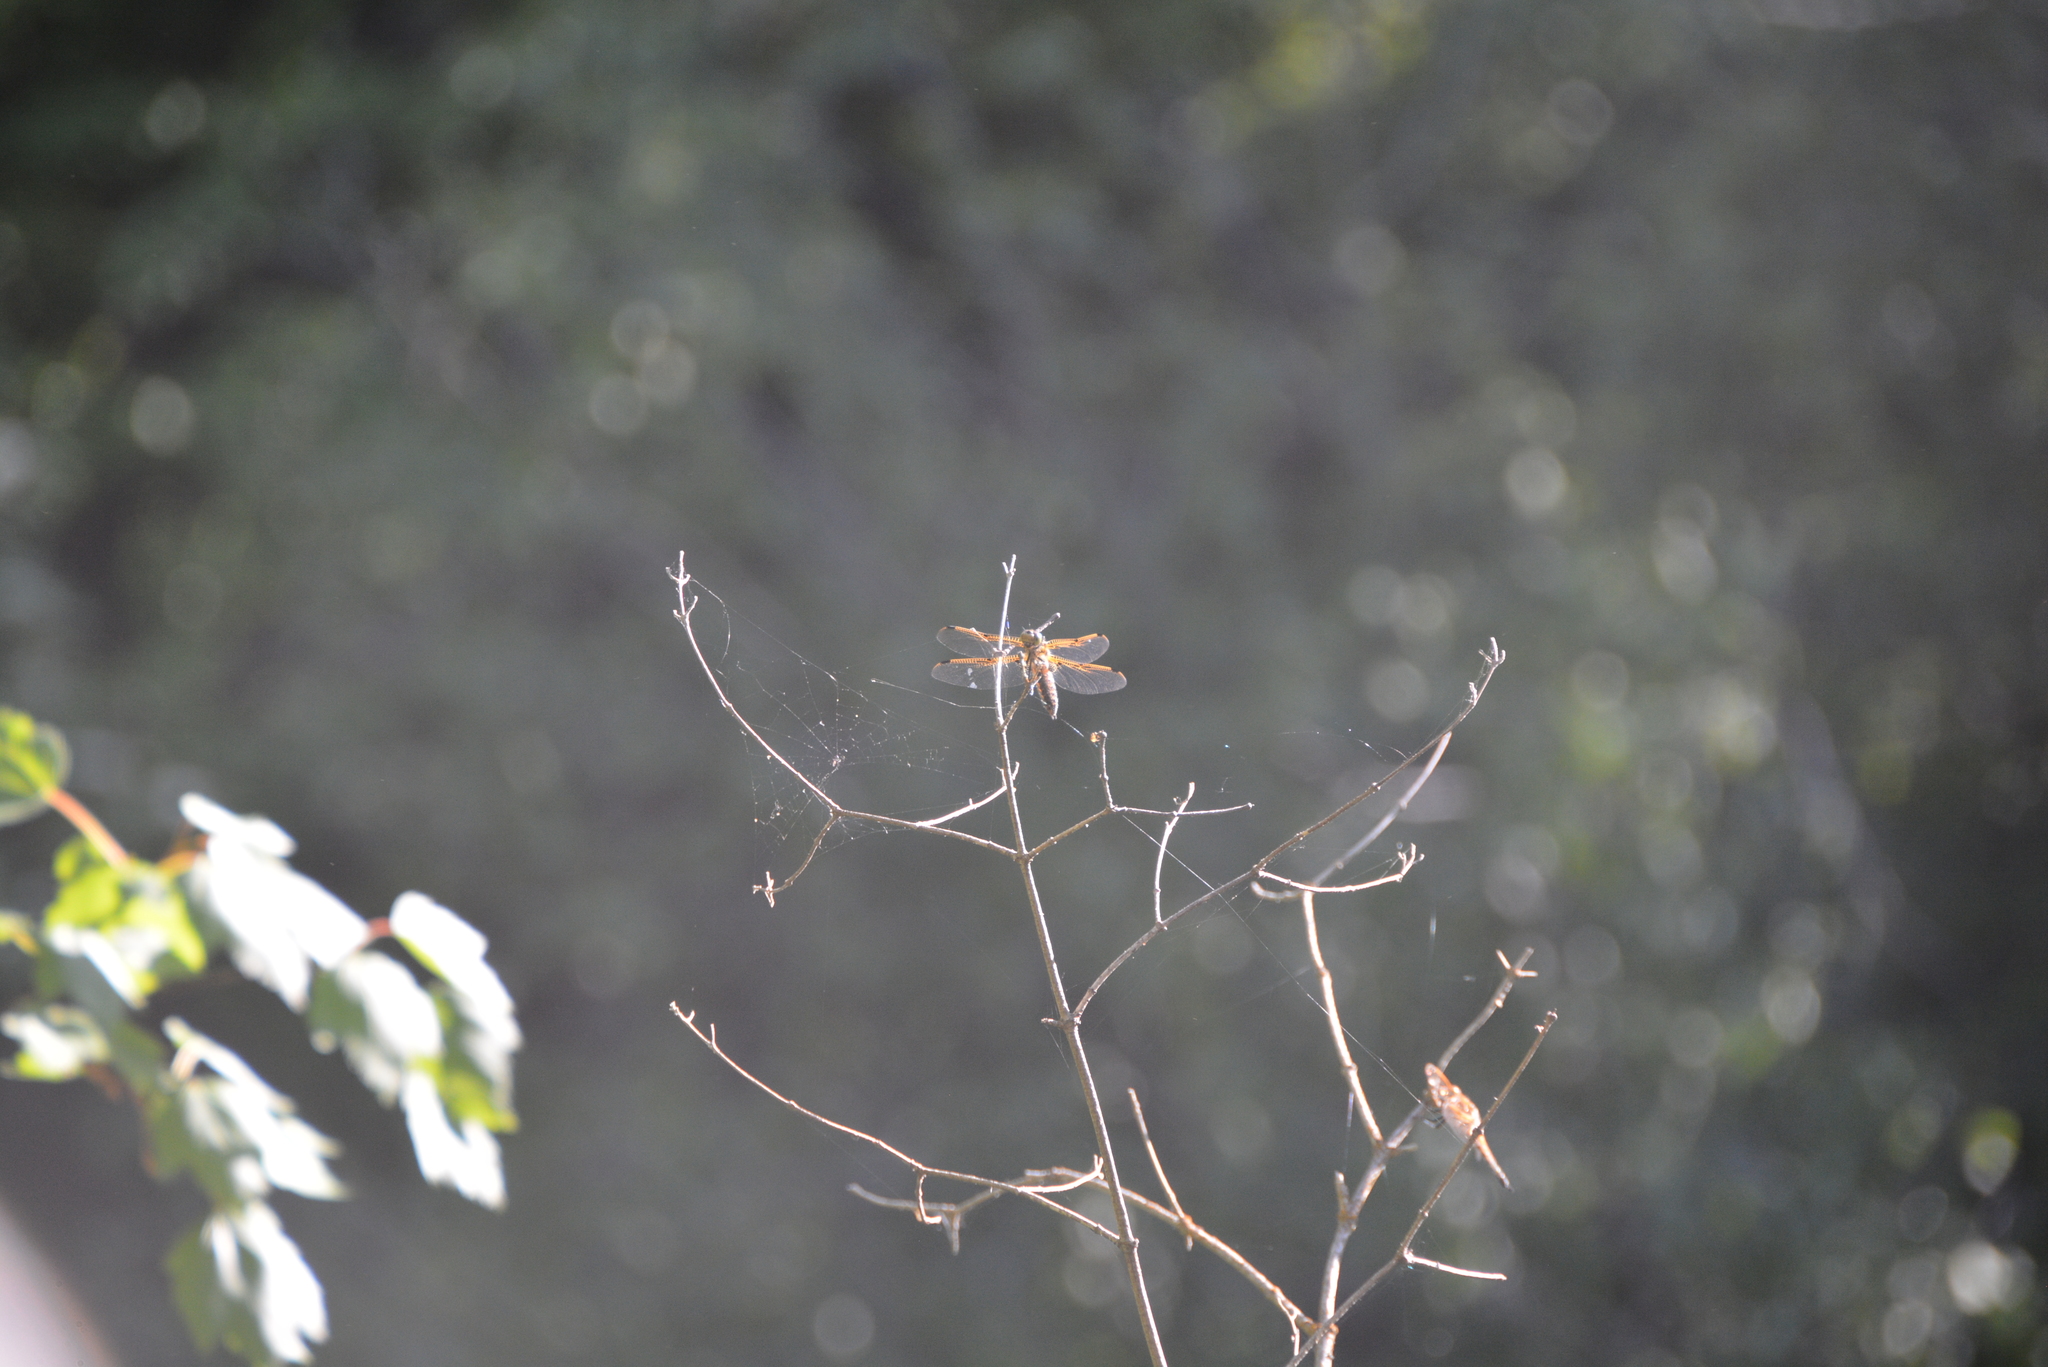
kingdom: Animalia
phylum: Arthropoda
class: Insecta
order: Odonata
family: Libellulidae
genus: Libellula
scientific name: Libellula quadrimaculata
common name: Four-spotted chaser
